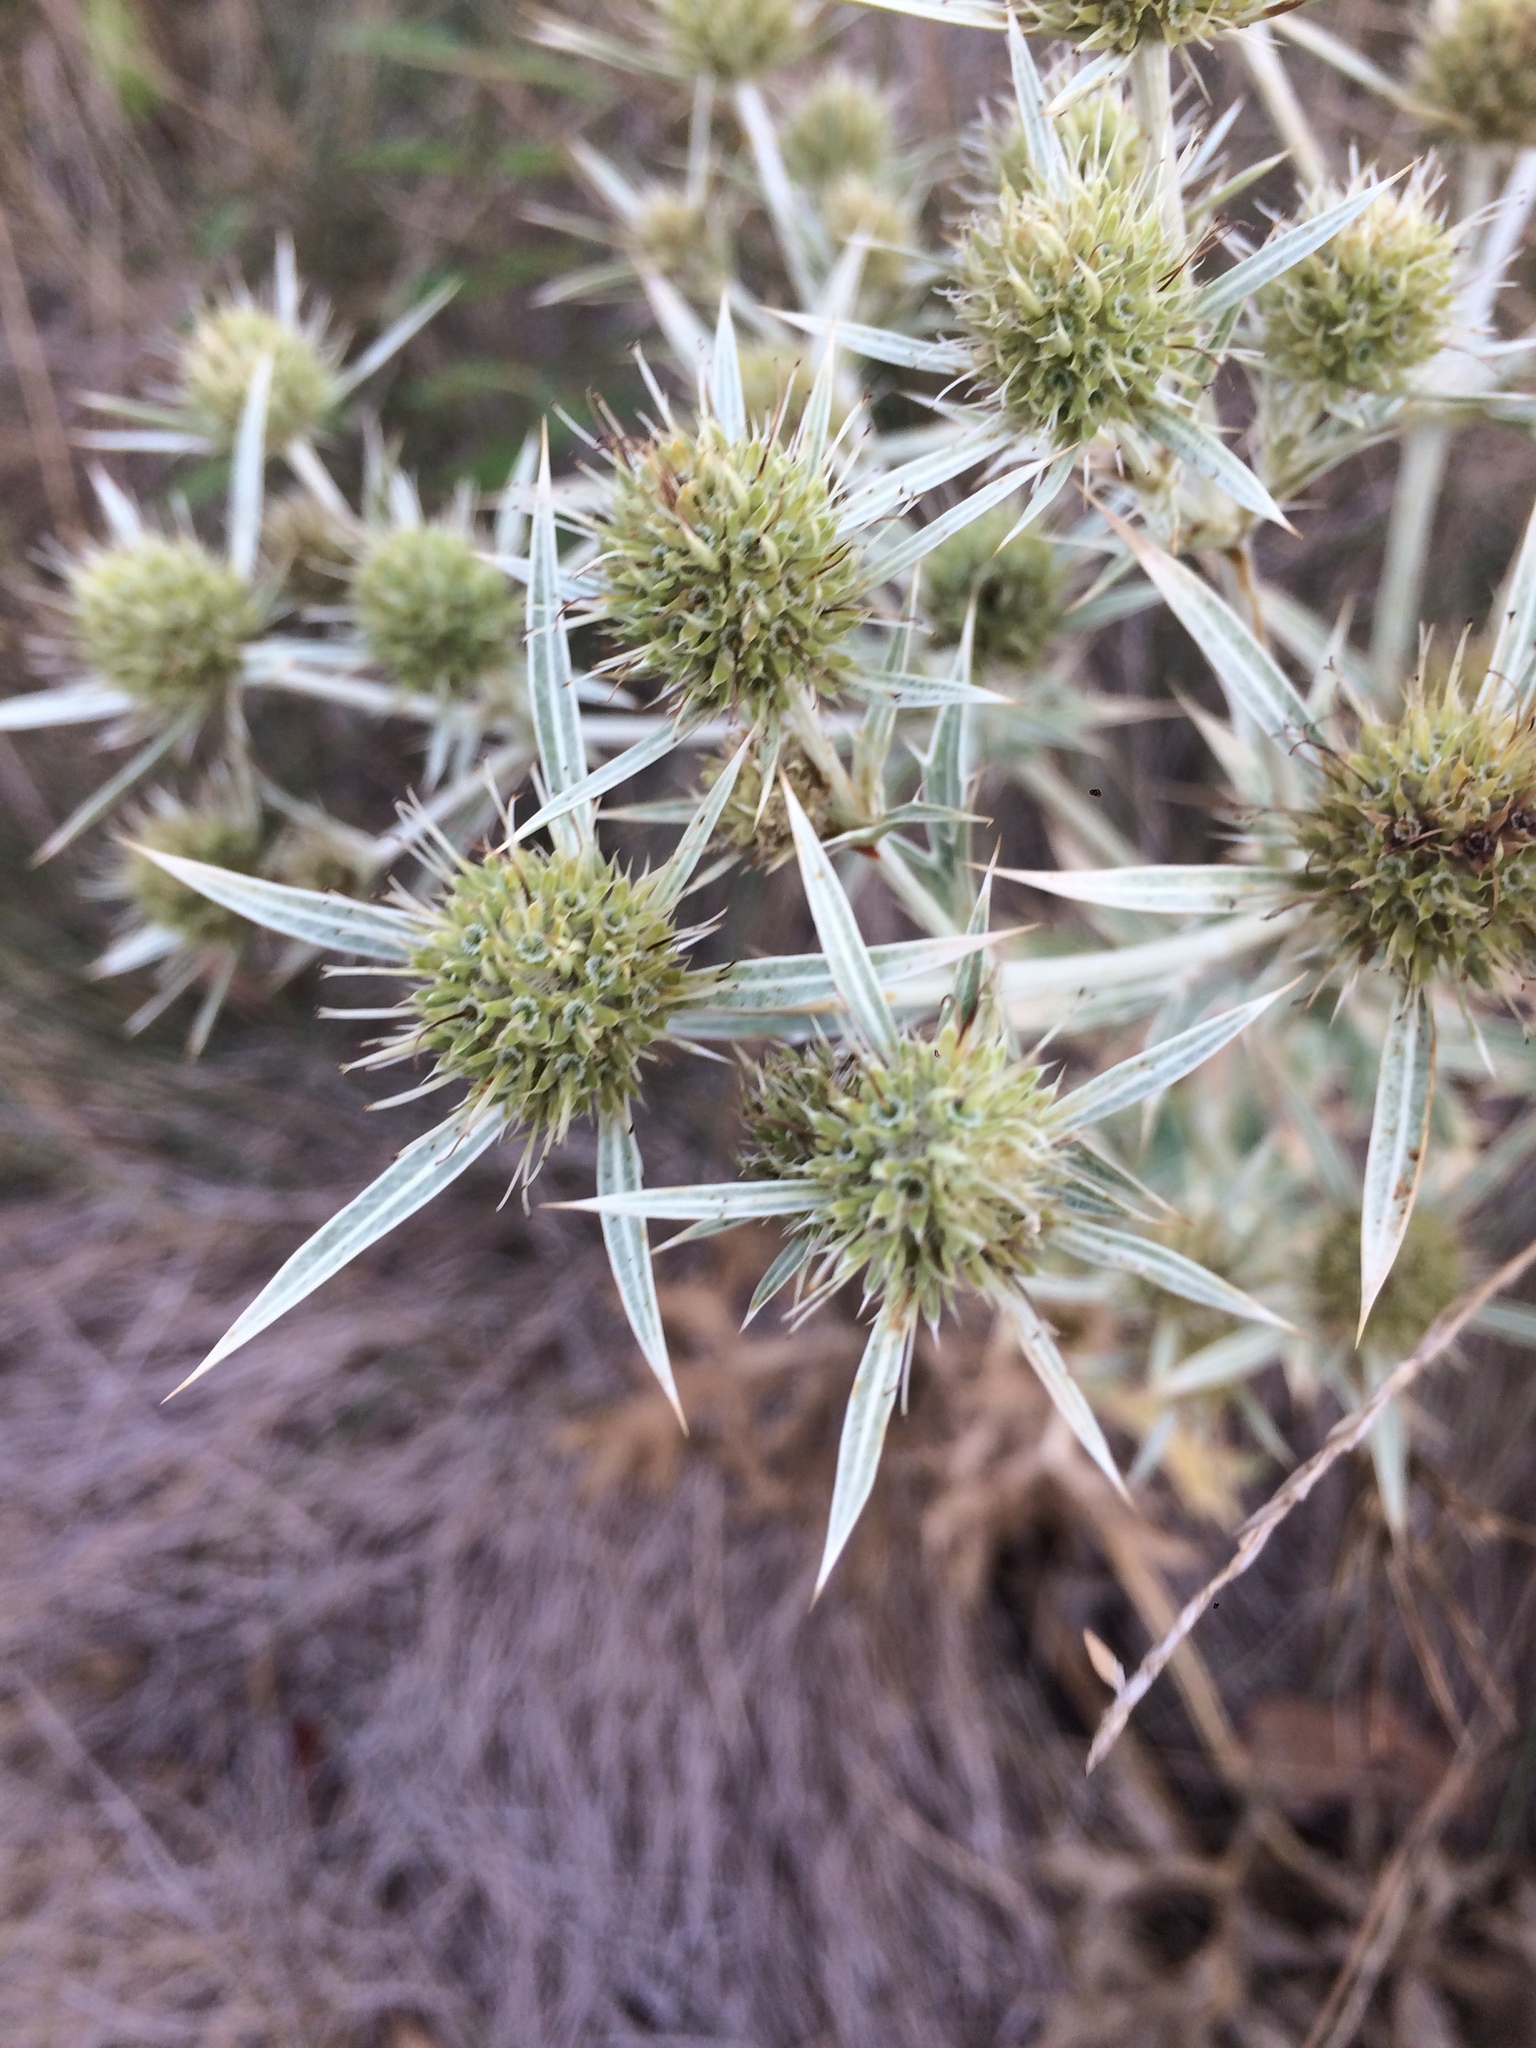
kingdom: Plantae
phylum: Tracheophyta
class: Magnoliopsida
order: Apiales
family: Apiaceae
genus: Eryngium
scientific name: Eryngium campestre
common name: Field eryngo
